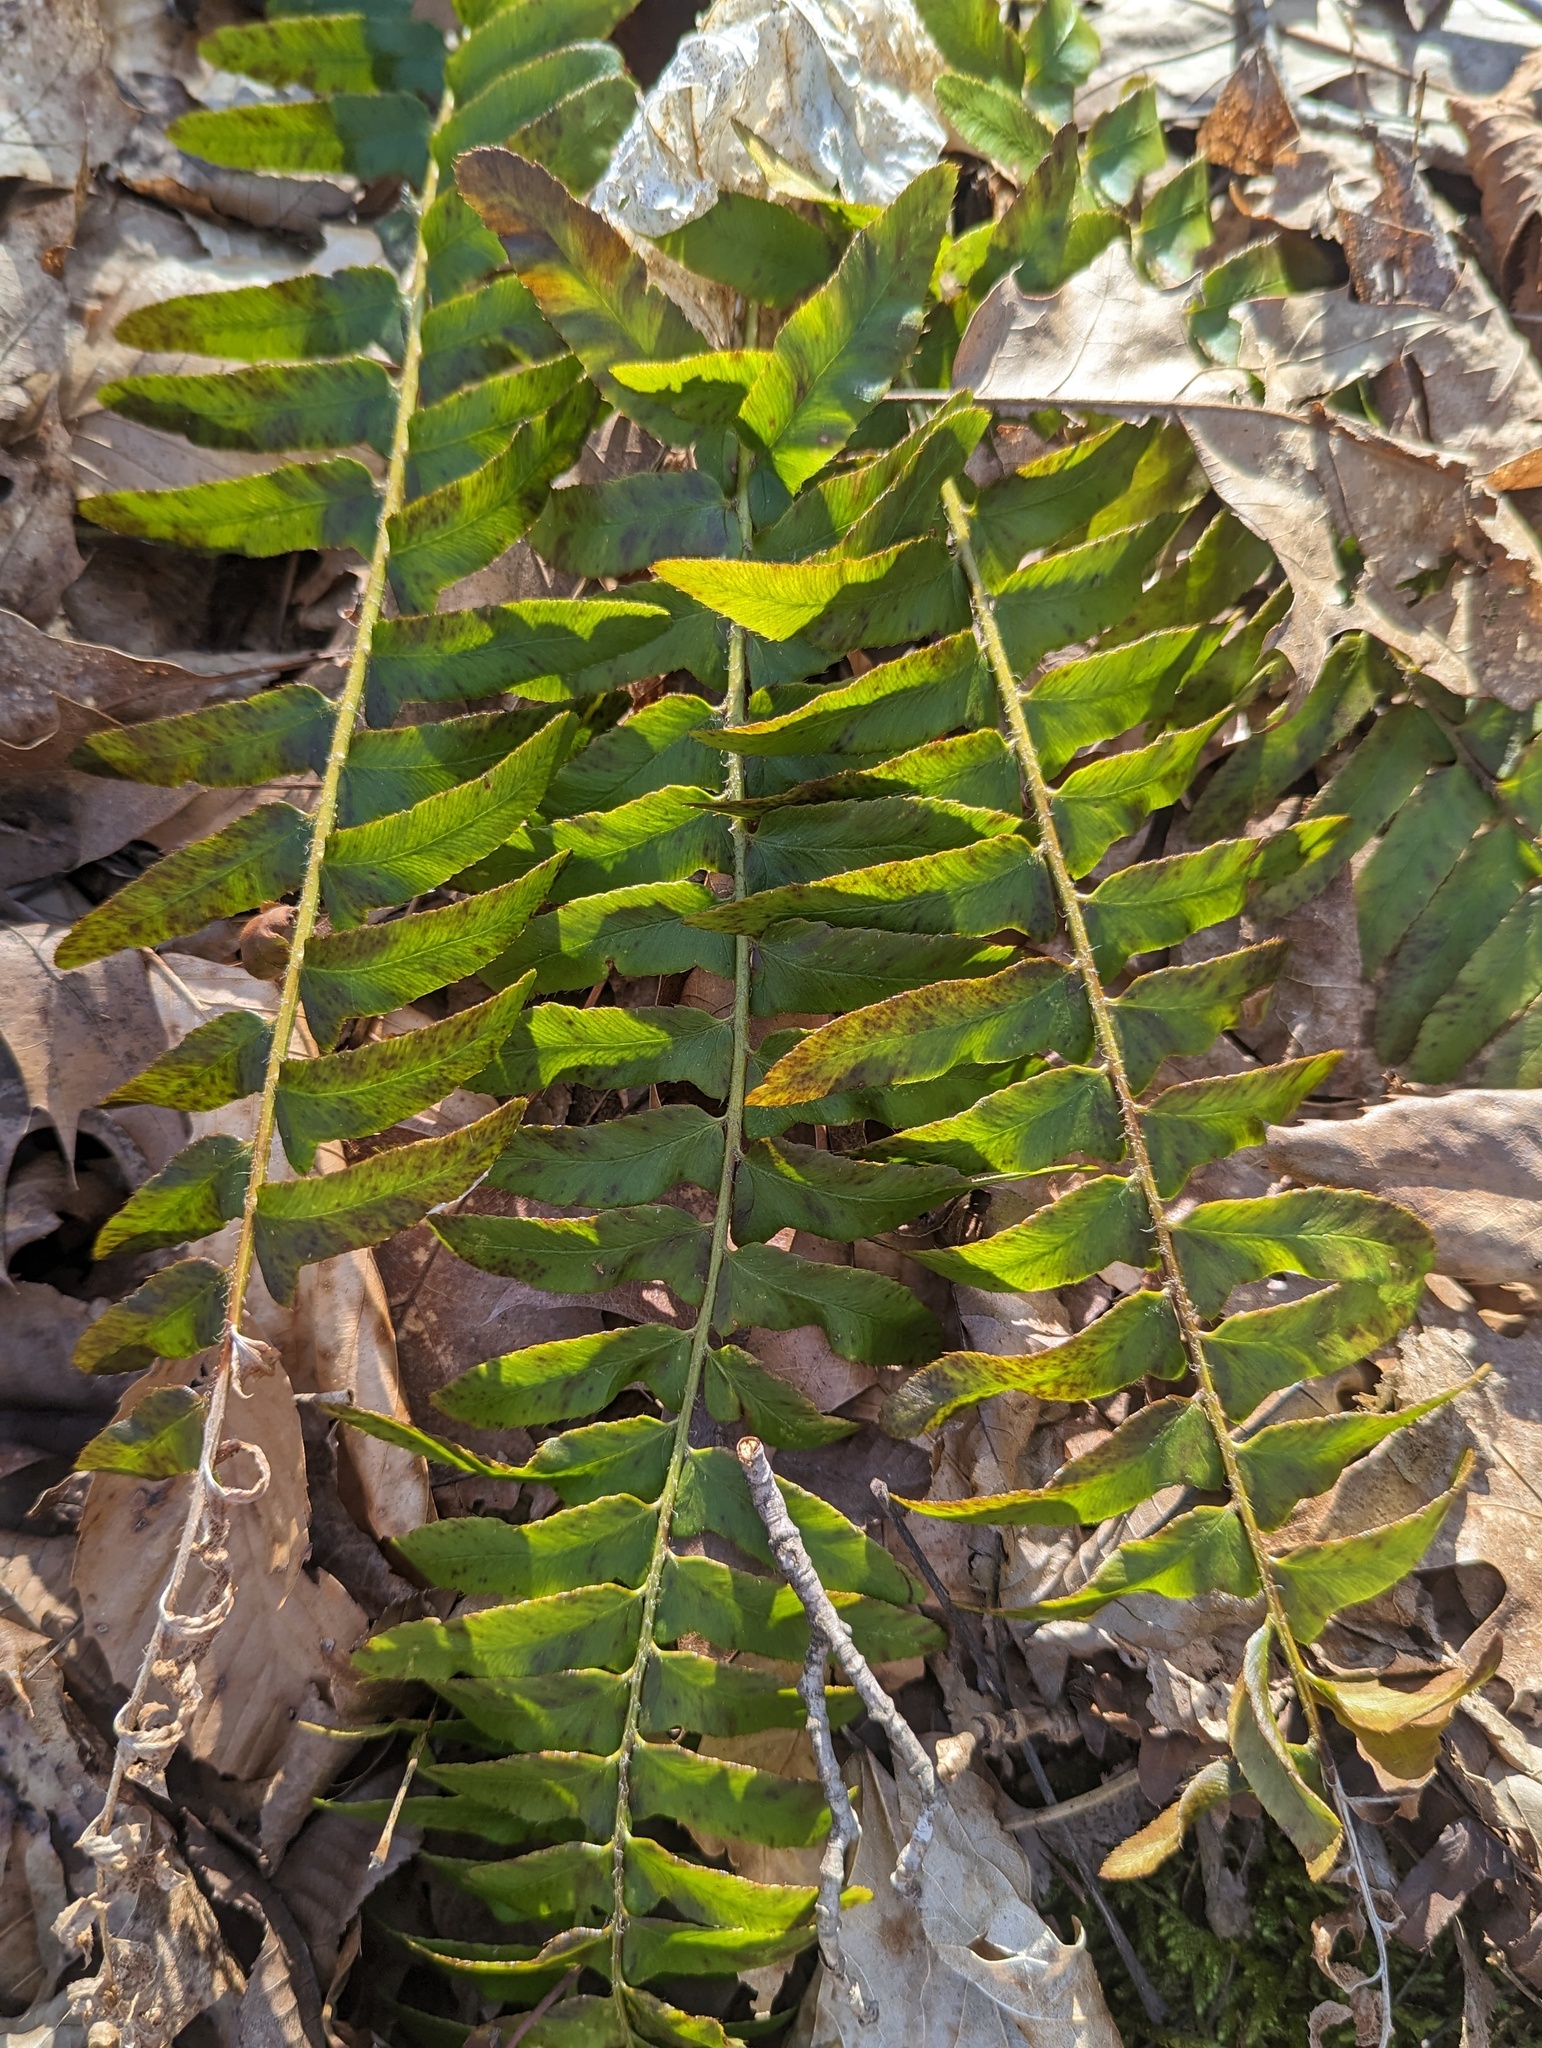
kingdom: Plantae
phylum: Tracheophyta
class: Polypodiopsida
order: Polypodiales
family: Dryopteridaceae
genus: Polystichum
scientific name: Polystichum acrostichoides
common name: Christmas fern
